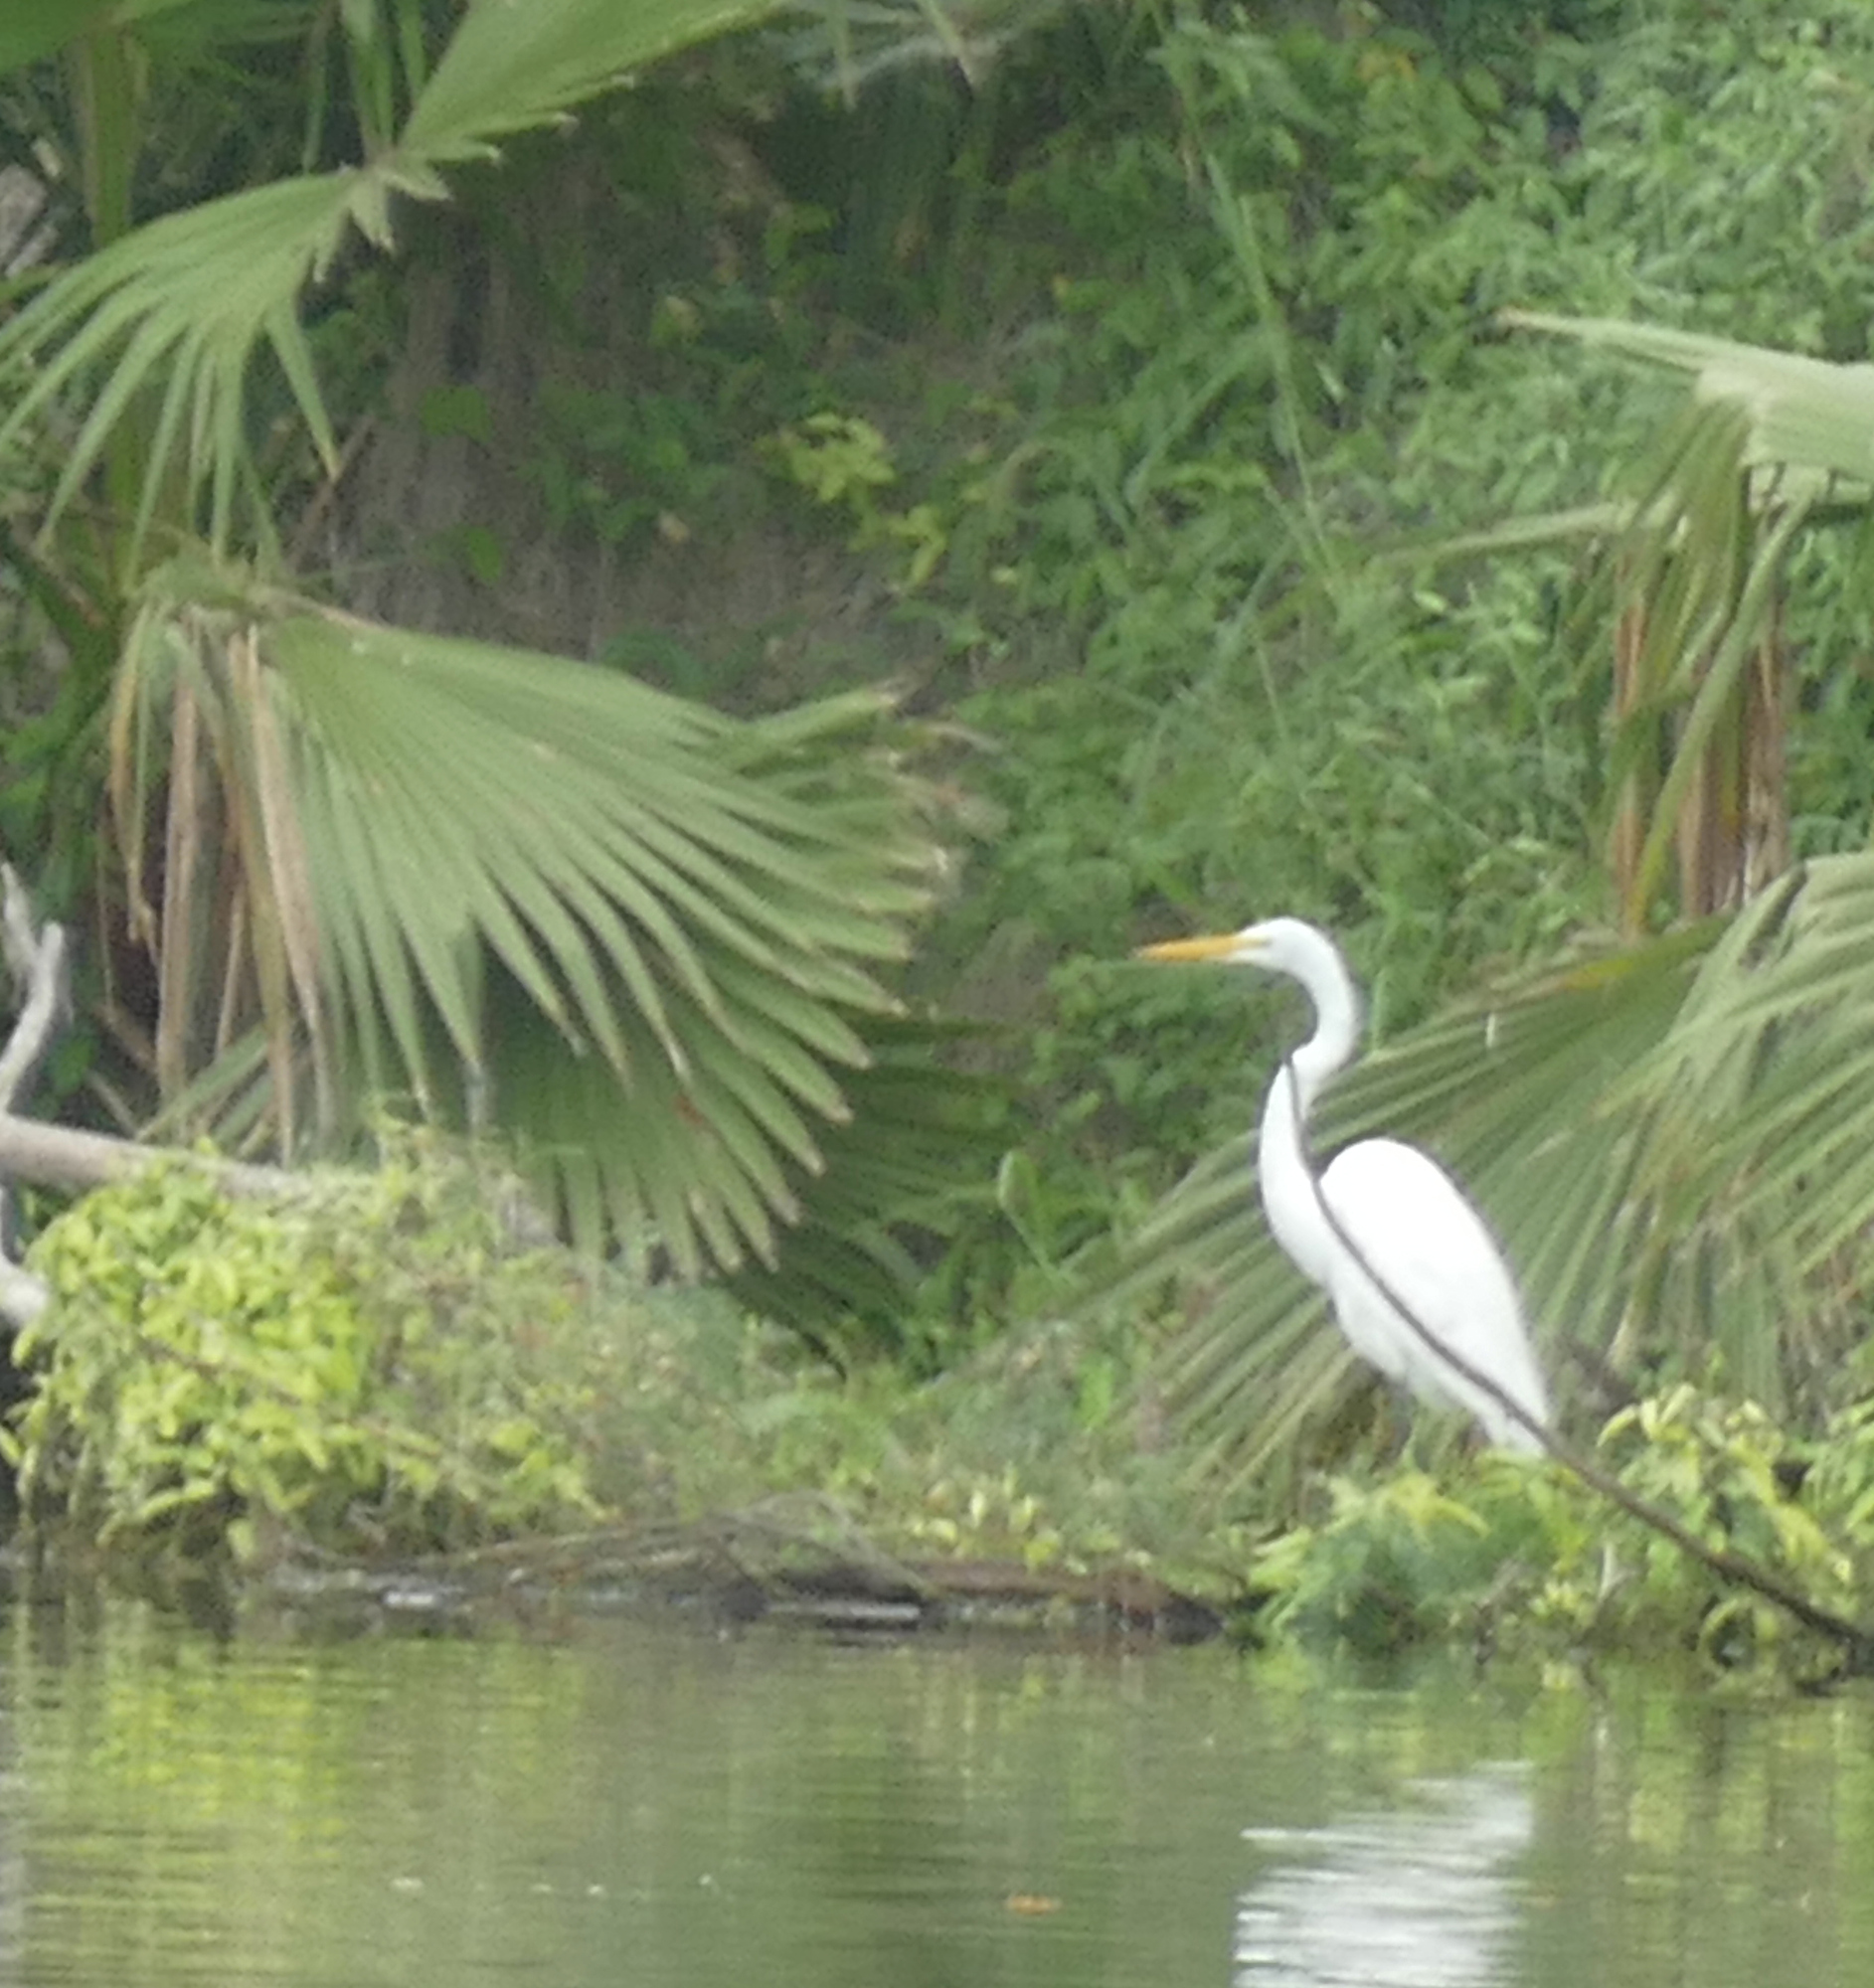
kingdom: Animalia
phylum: Chordata
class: Aves
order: Pelecaniformes
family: Ardeidae
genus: Ardea
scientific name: Ardea alba
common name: Great egret
